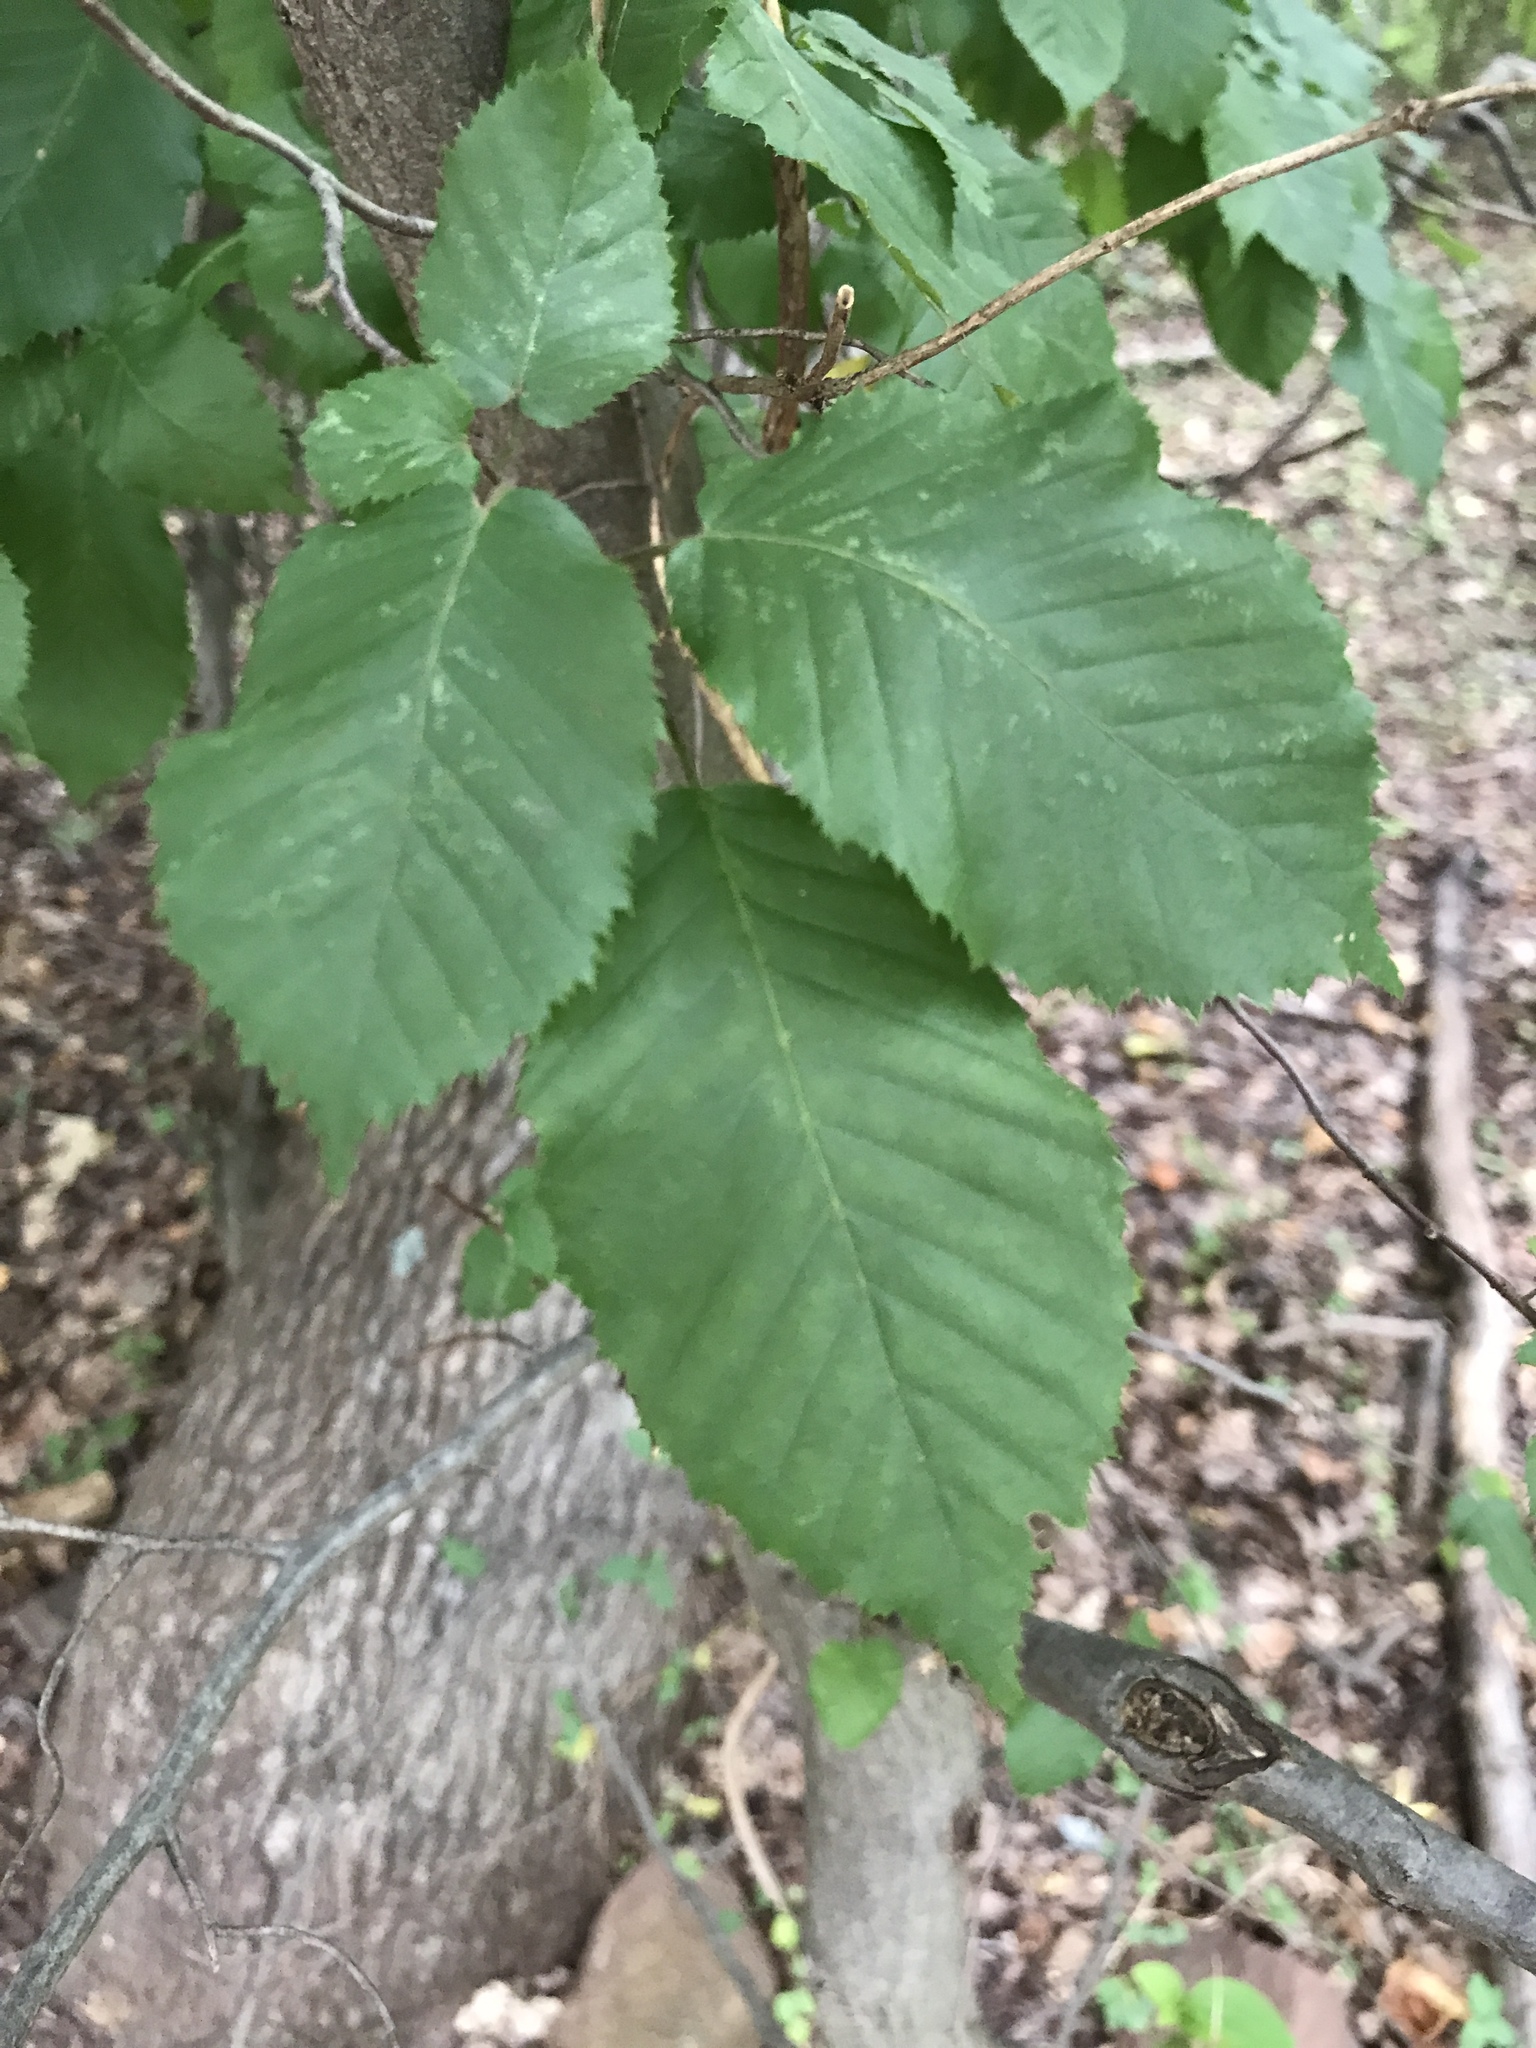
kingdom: Plantae
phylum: Tracheophyta
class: Magnoliopsida
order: Fagales
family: Betulaceae
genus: Carpinus
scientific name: Carpinus caroliniana
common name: American hornbeam
